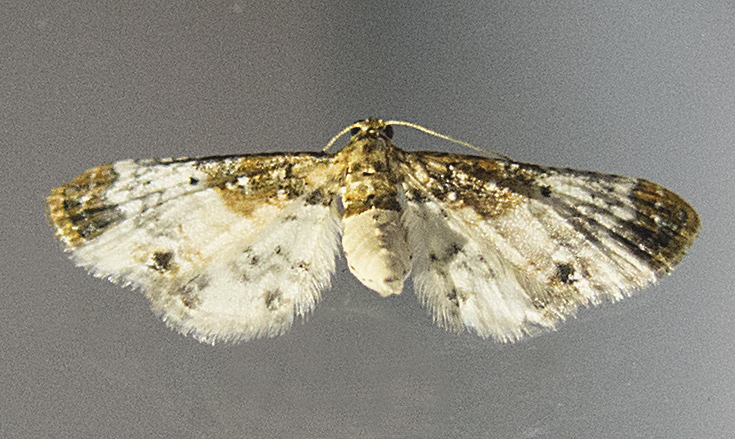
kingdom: Animalia
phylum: Arthropoda
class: Insecta
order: Lepidoptera
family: Geometridae
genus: Eupithecia
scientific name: Eupithecia breviculata
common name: Rusty-shouldered pug
